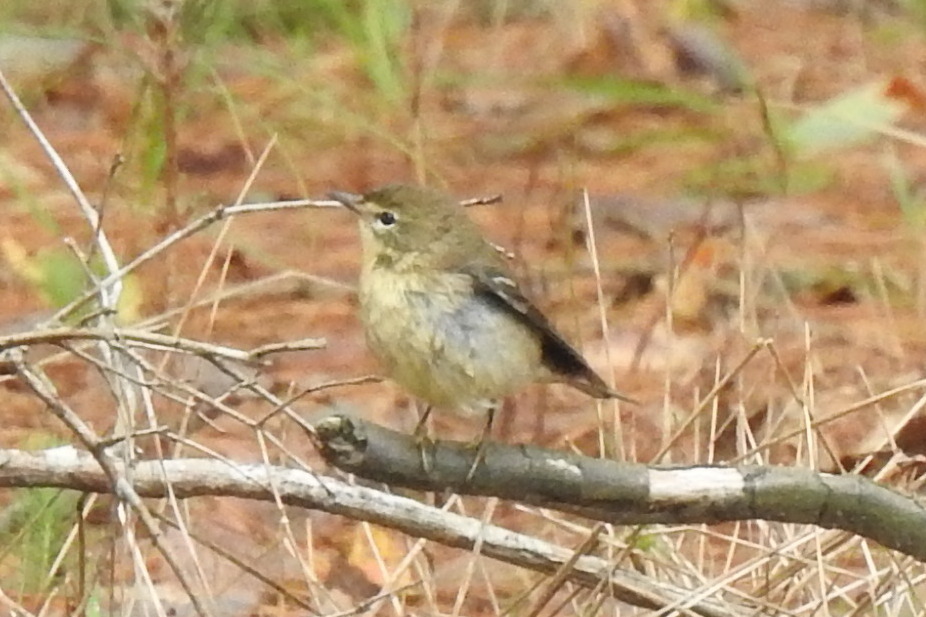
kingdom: Animalia
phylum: Chordata
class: Aves
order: Passeriformes
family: Parulidae
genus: Setophaga
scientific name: Setophaga pinus
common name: Pine warbler
